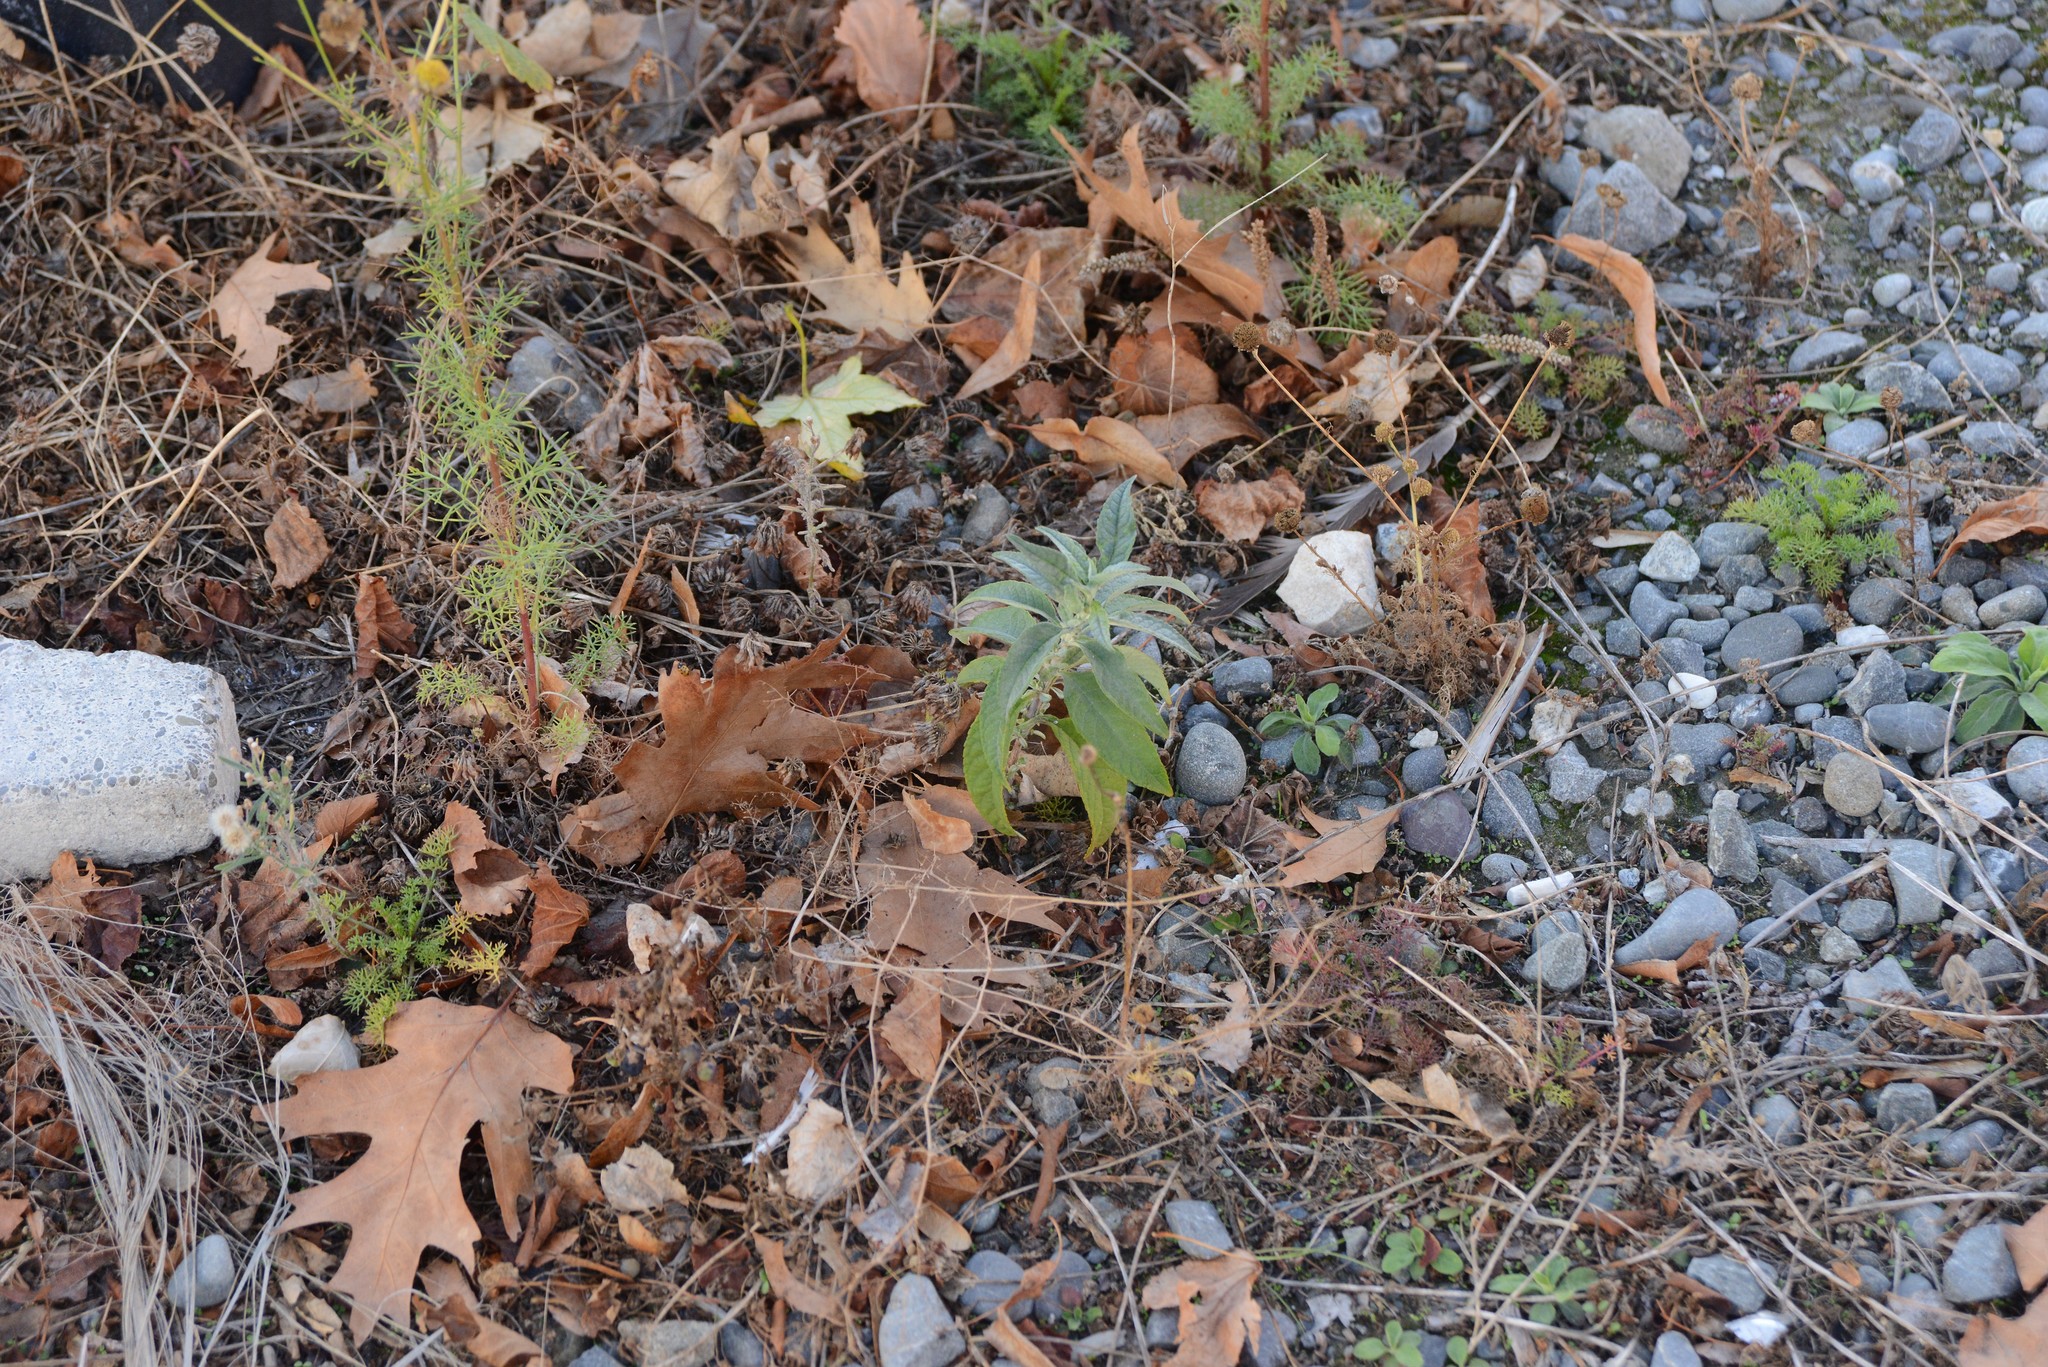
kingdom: Plantae
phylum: Tracheophyta
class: Magnoliopsida
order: Lamiales
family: Scrophulariaceae
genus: Buddleja
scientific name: Buddleja davidii
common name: Butterfly-bush
